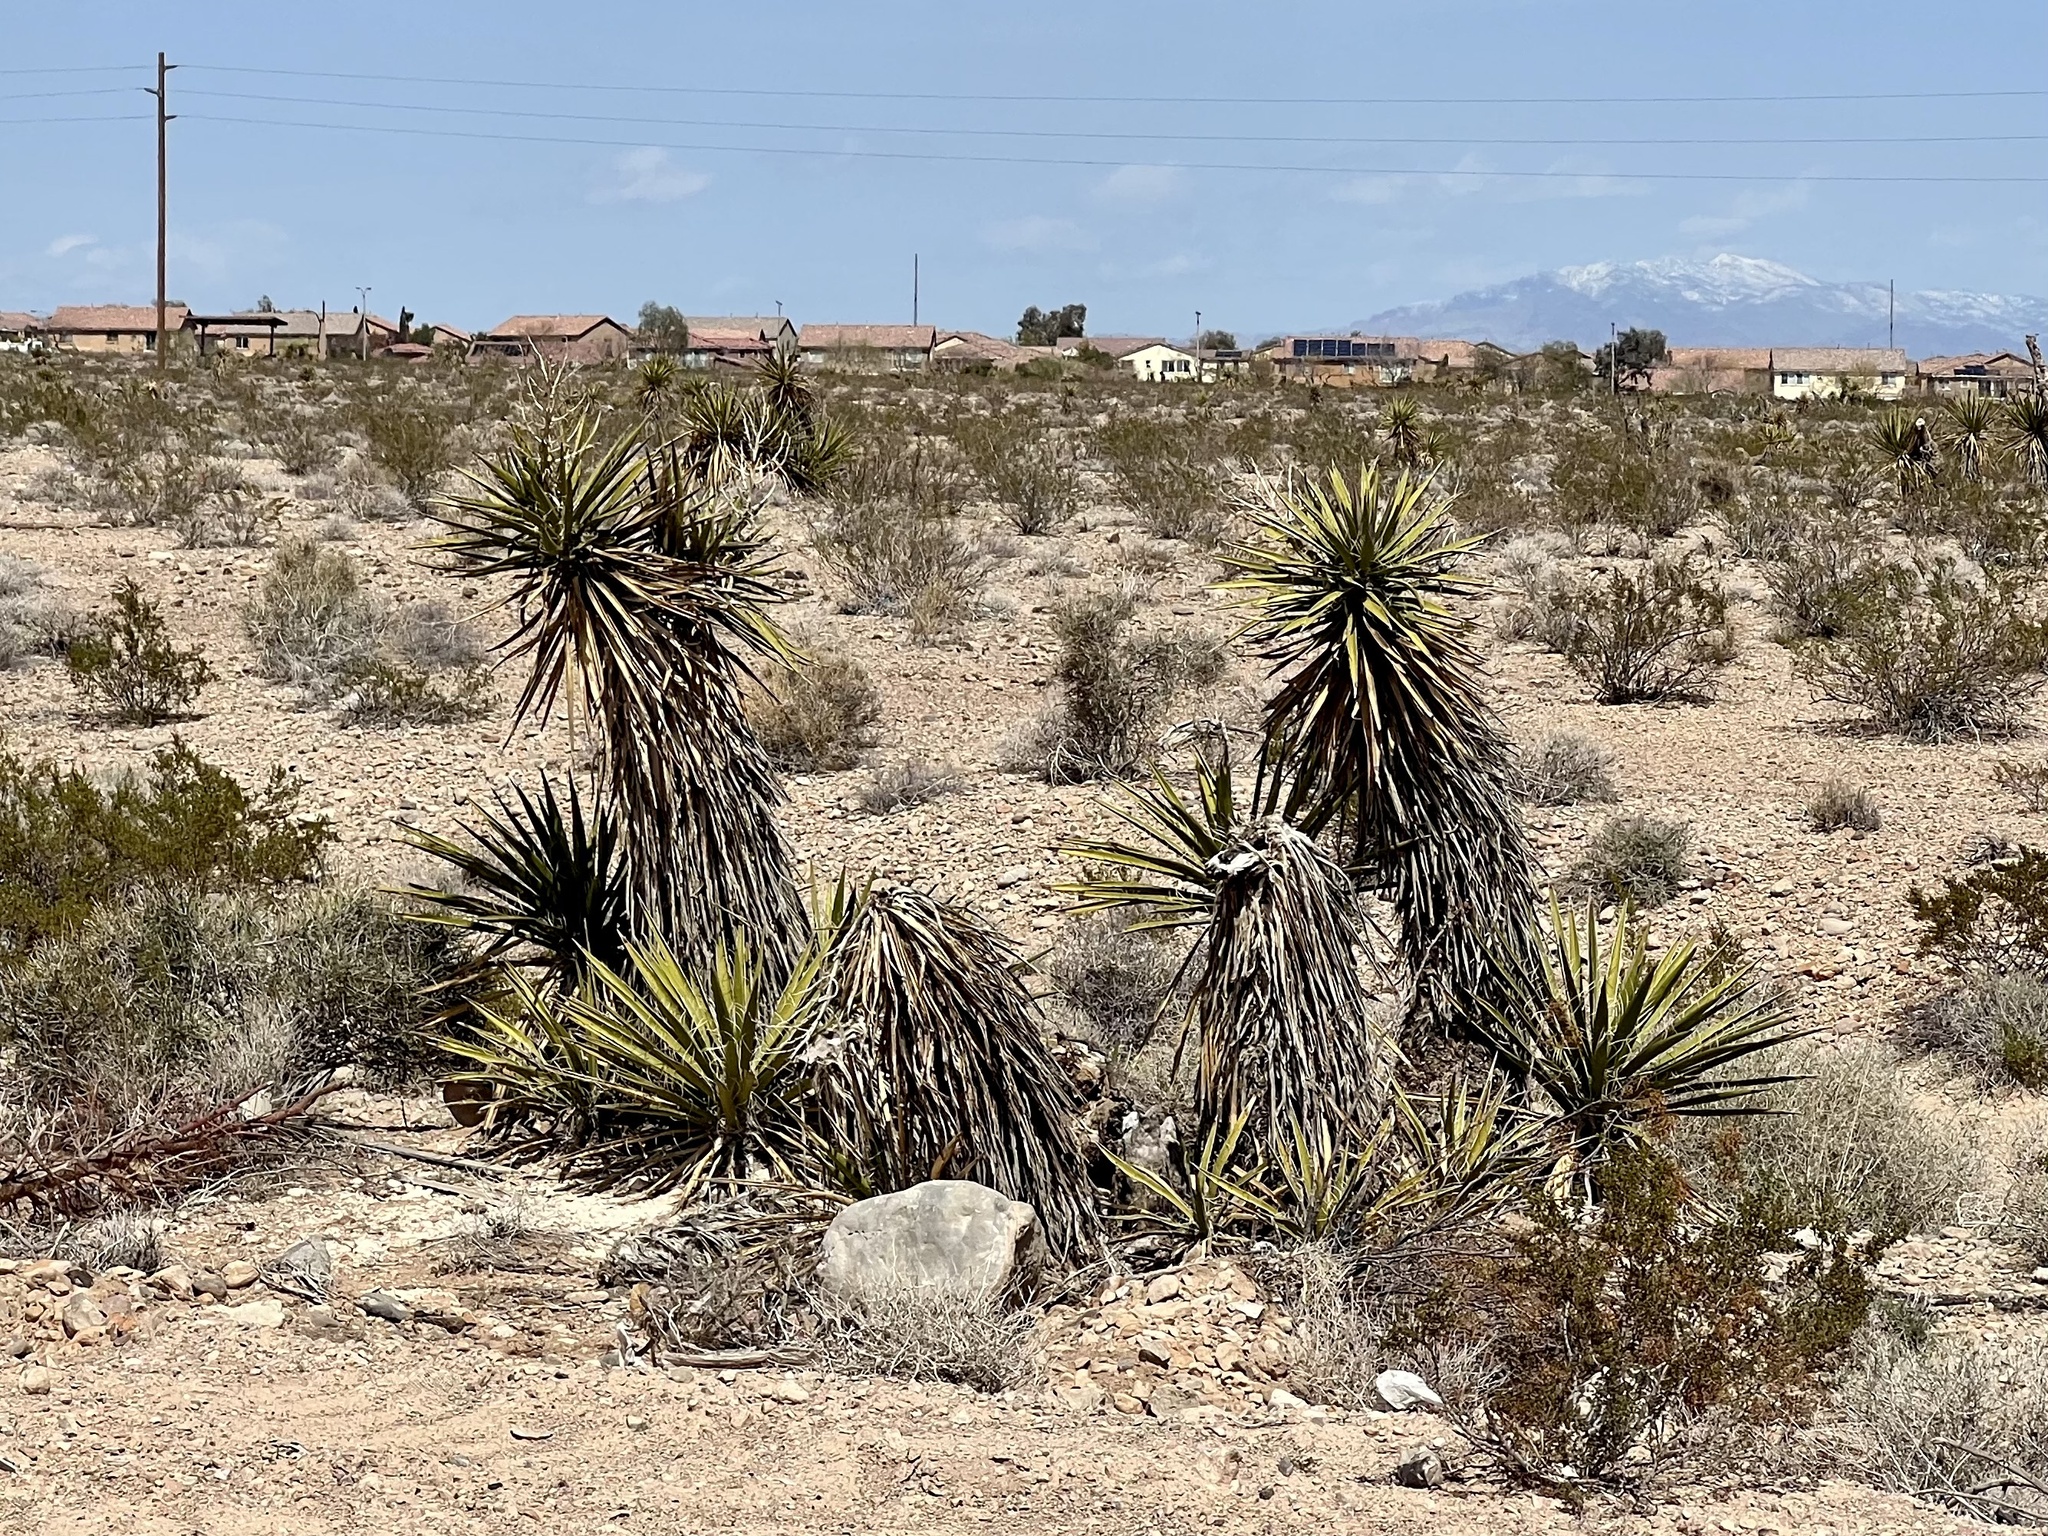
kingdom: Plantae
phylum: Tracheophyta
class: Liliopsida
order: Asparagales
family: Asparagaceae
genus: Yucca
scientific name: Yucca schidigera
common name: Mojave yucca
